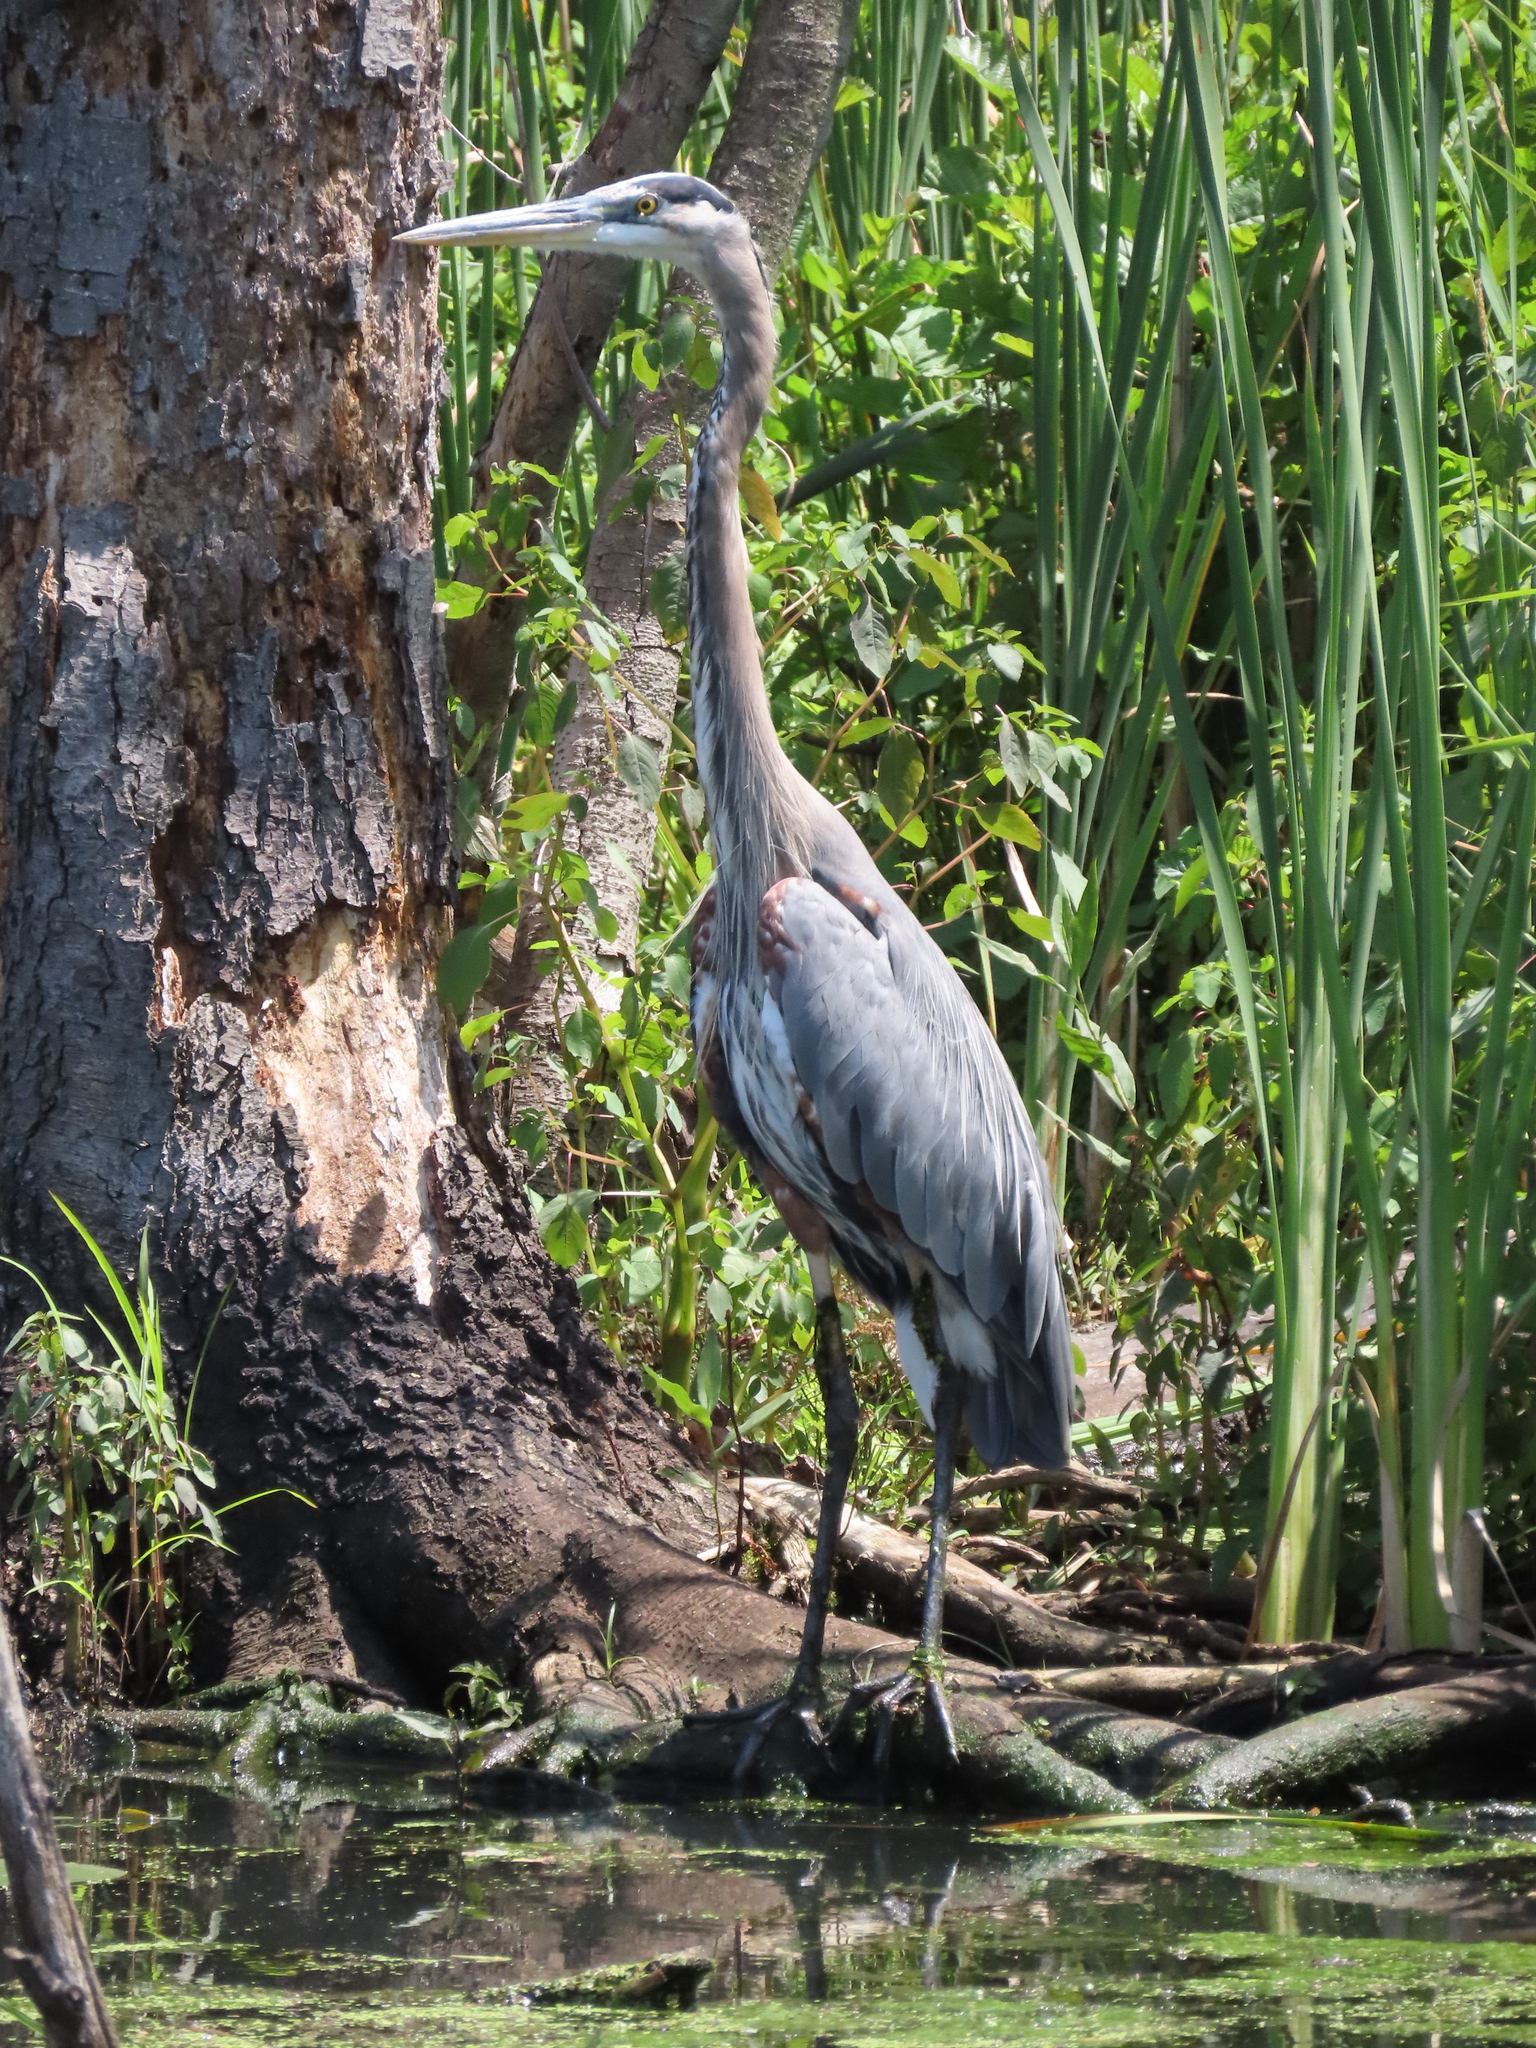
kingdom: Animalia
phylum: Chordata
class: Aves
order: Pelecaniformes
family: Ardeidae
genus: Ardea
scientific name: Ardea herodias
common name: Great blue heron
